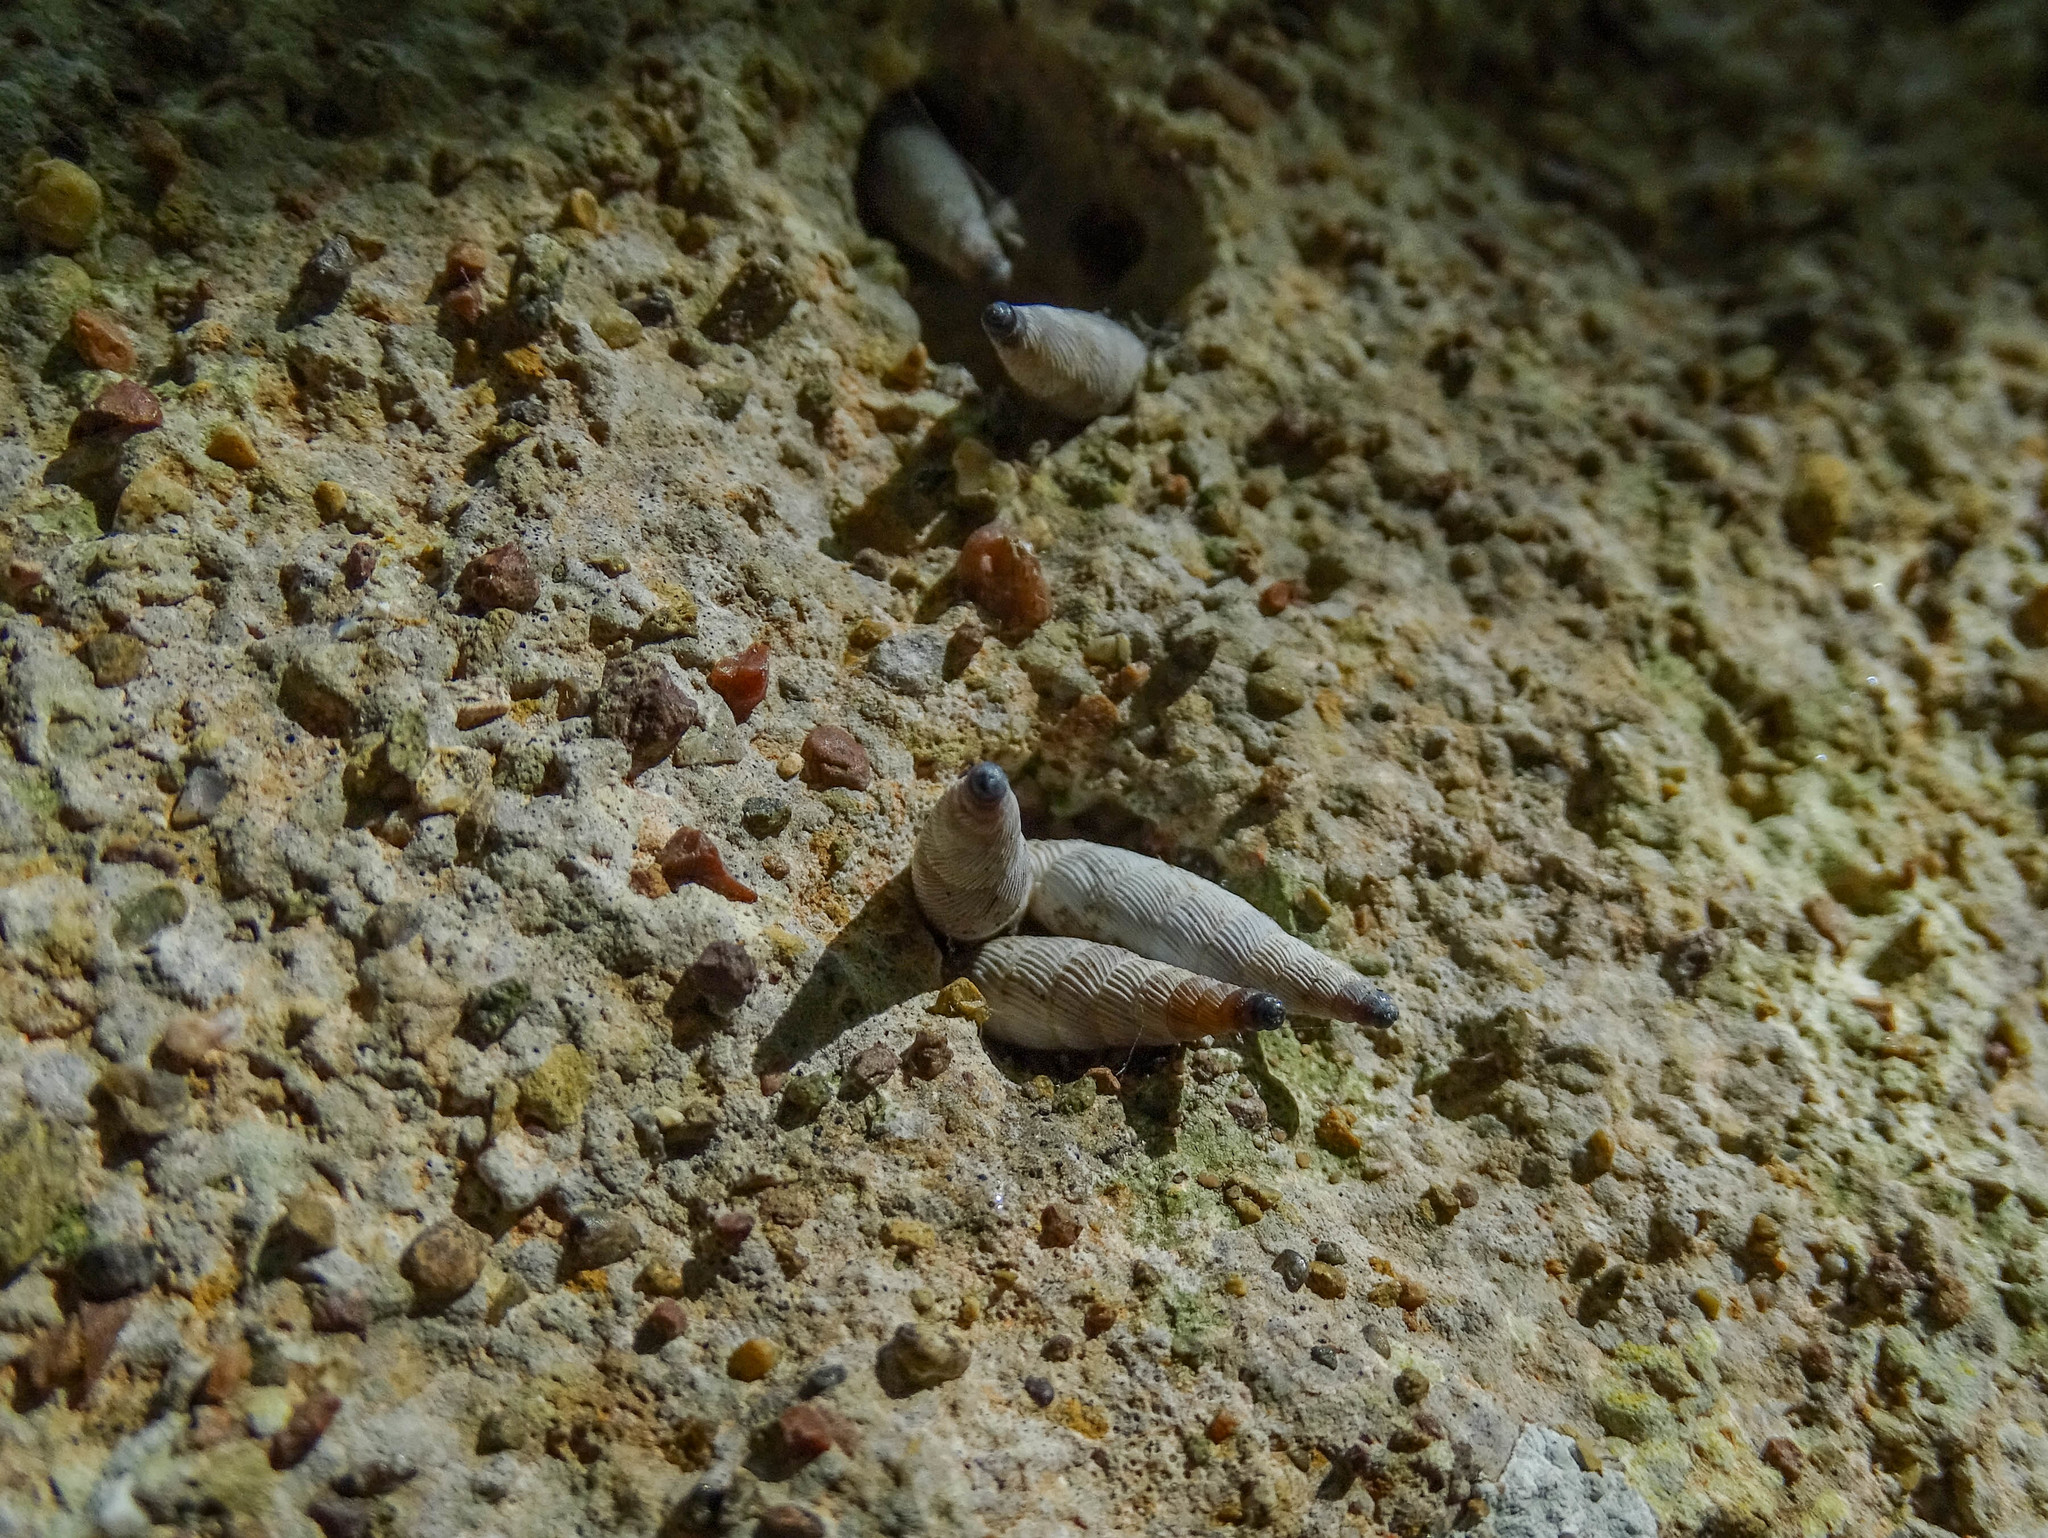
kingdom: Animalia
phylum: Mollusca
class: Gastropoda
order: Stylommatophora
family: Clausiliidae
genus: Albinaria
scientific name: Albinaria olivieri
